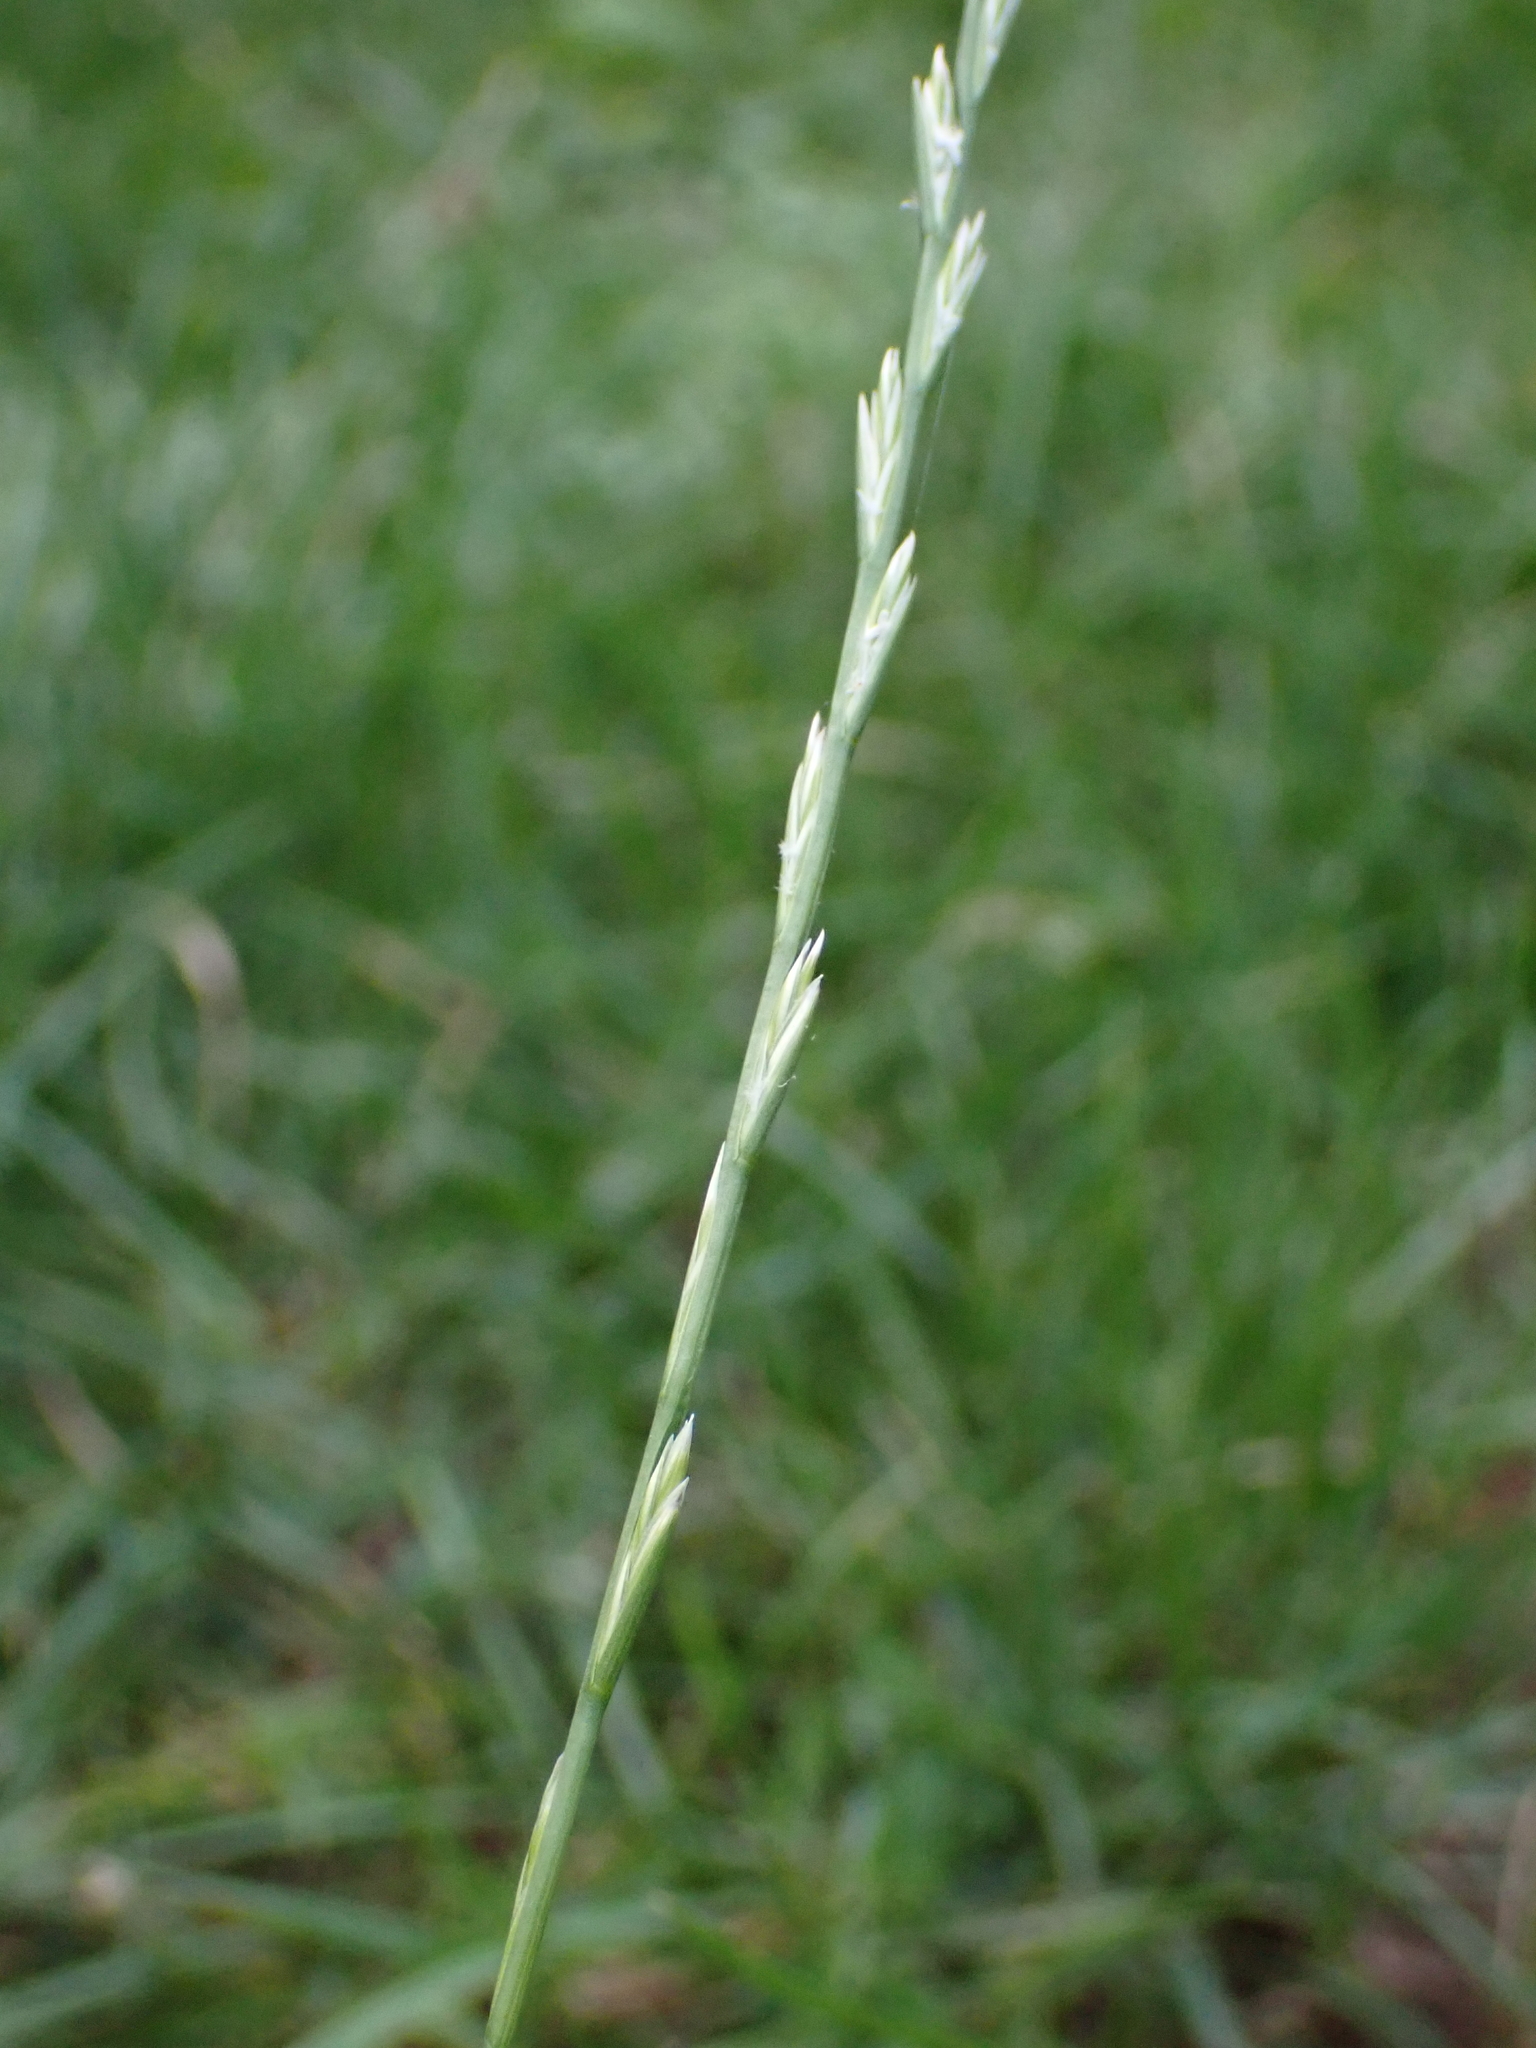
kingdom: Plantae
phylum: Tracheophyta
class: Liliopsida
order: Poales
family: Poaceae
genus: Lolium
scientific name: Lolium perenne
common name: Perennial ryegrass
